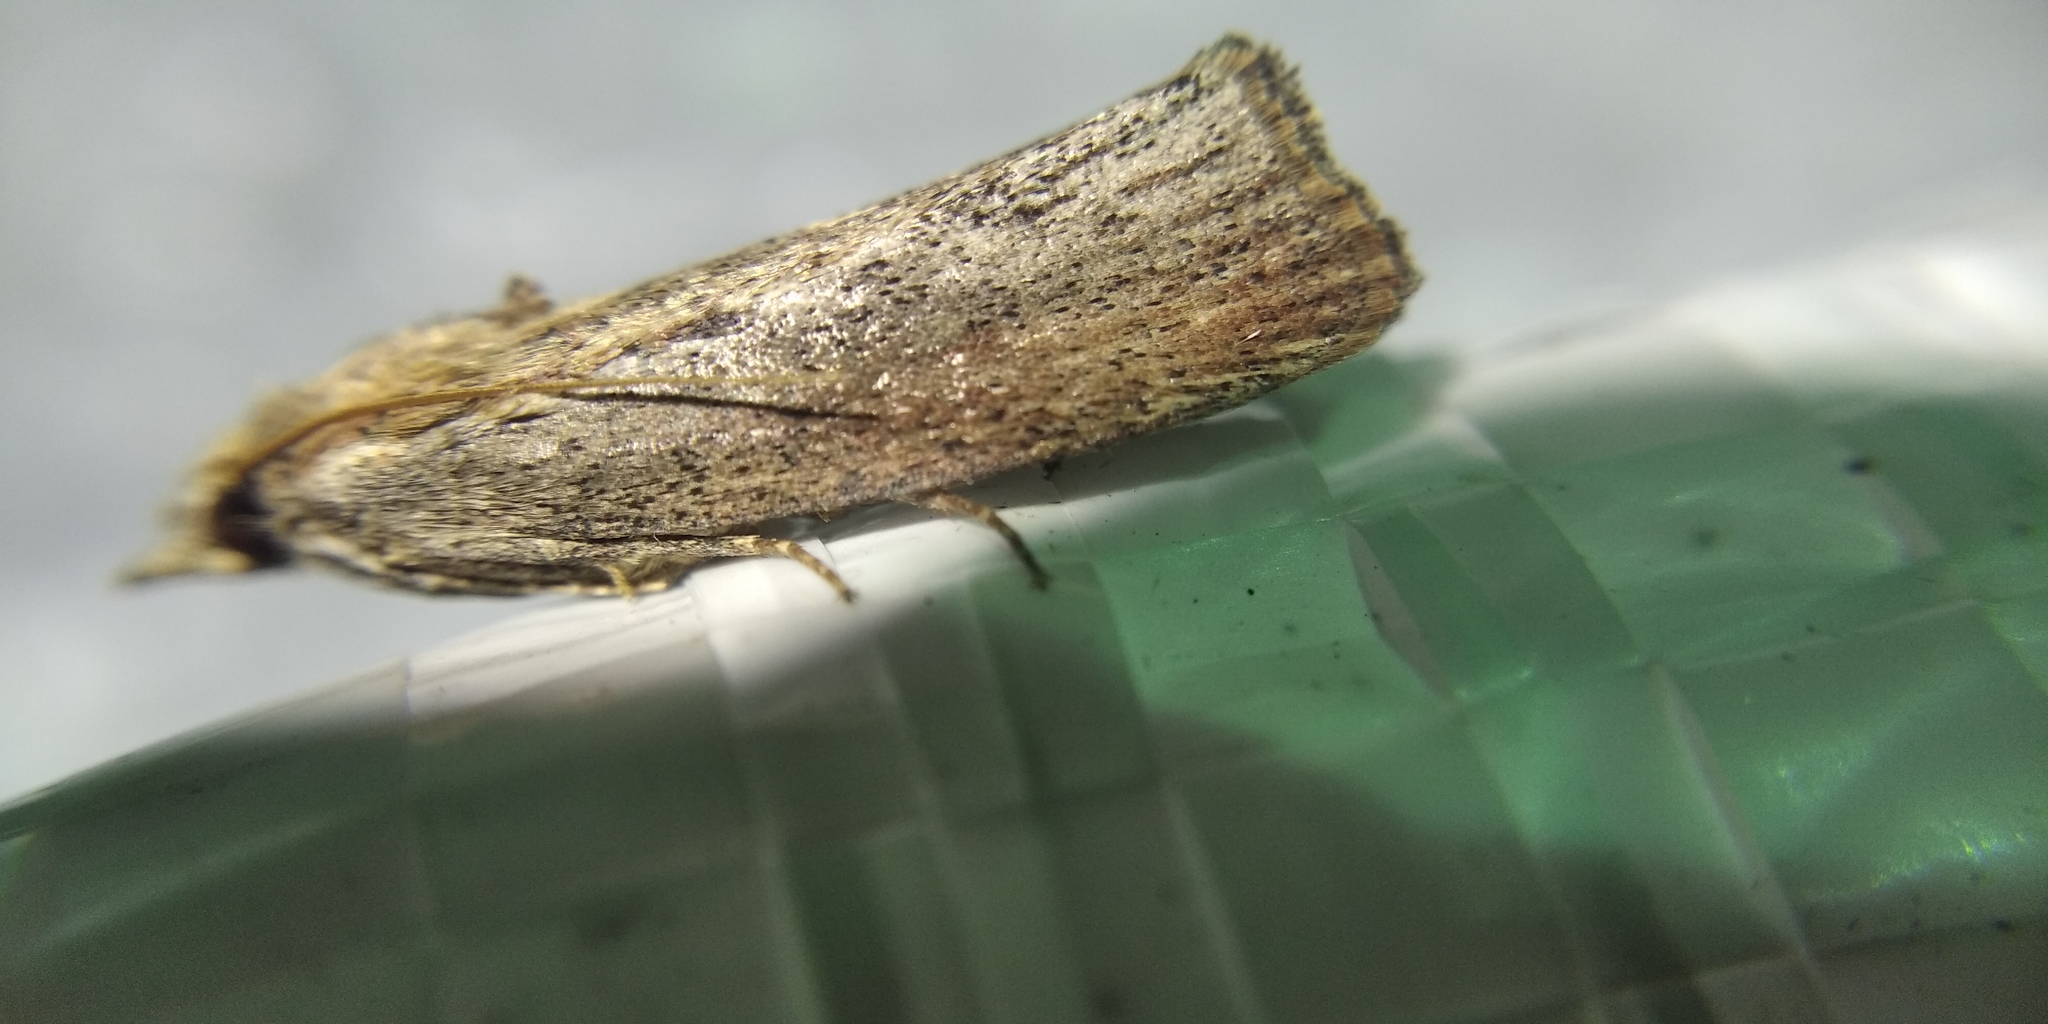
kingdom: Animalia
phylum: Arthropoda
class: Insecta
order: Lepidoptera
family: Pyralidae
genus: Galleria
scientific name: Galleria mellonella
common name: Greater wax moth
